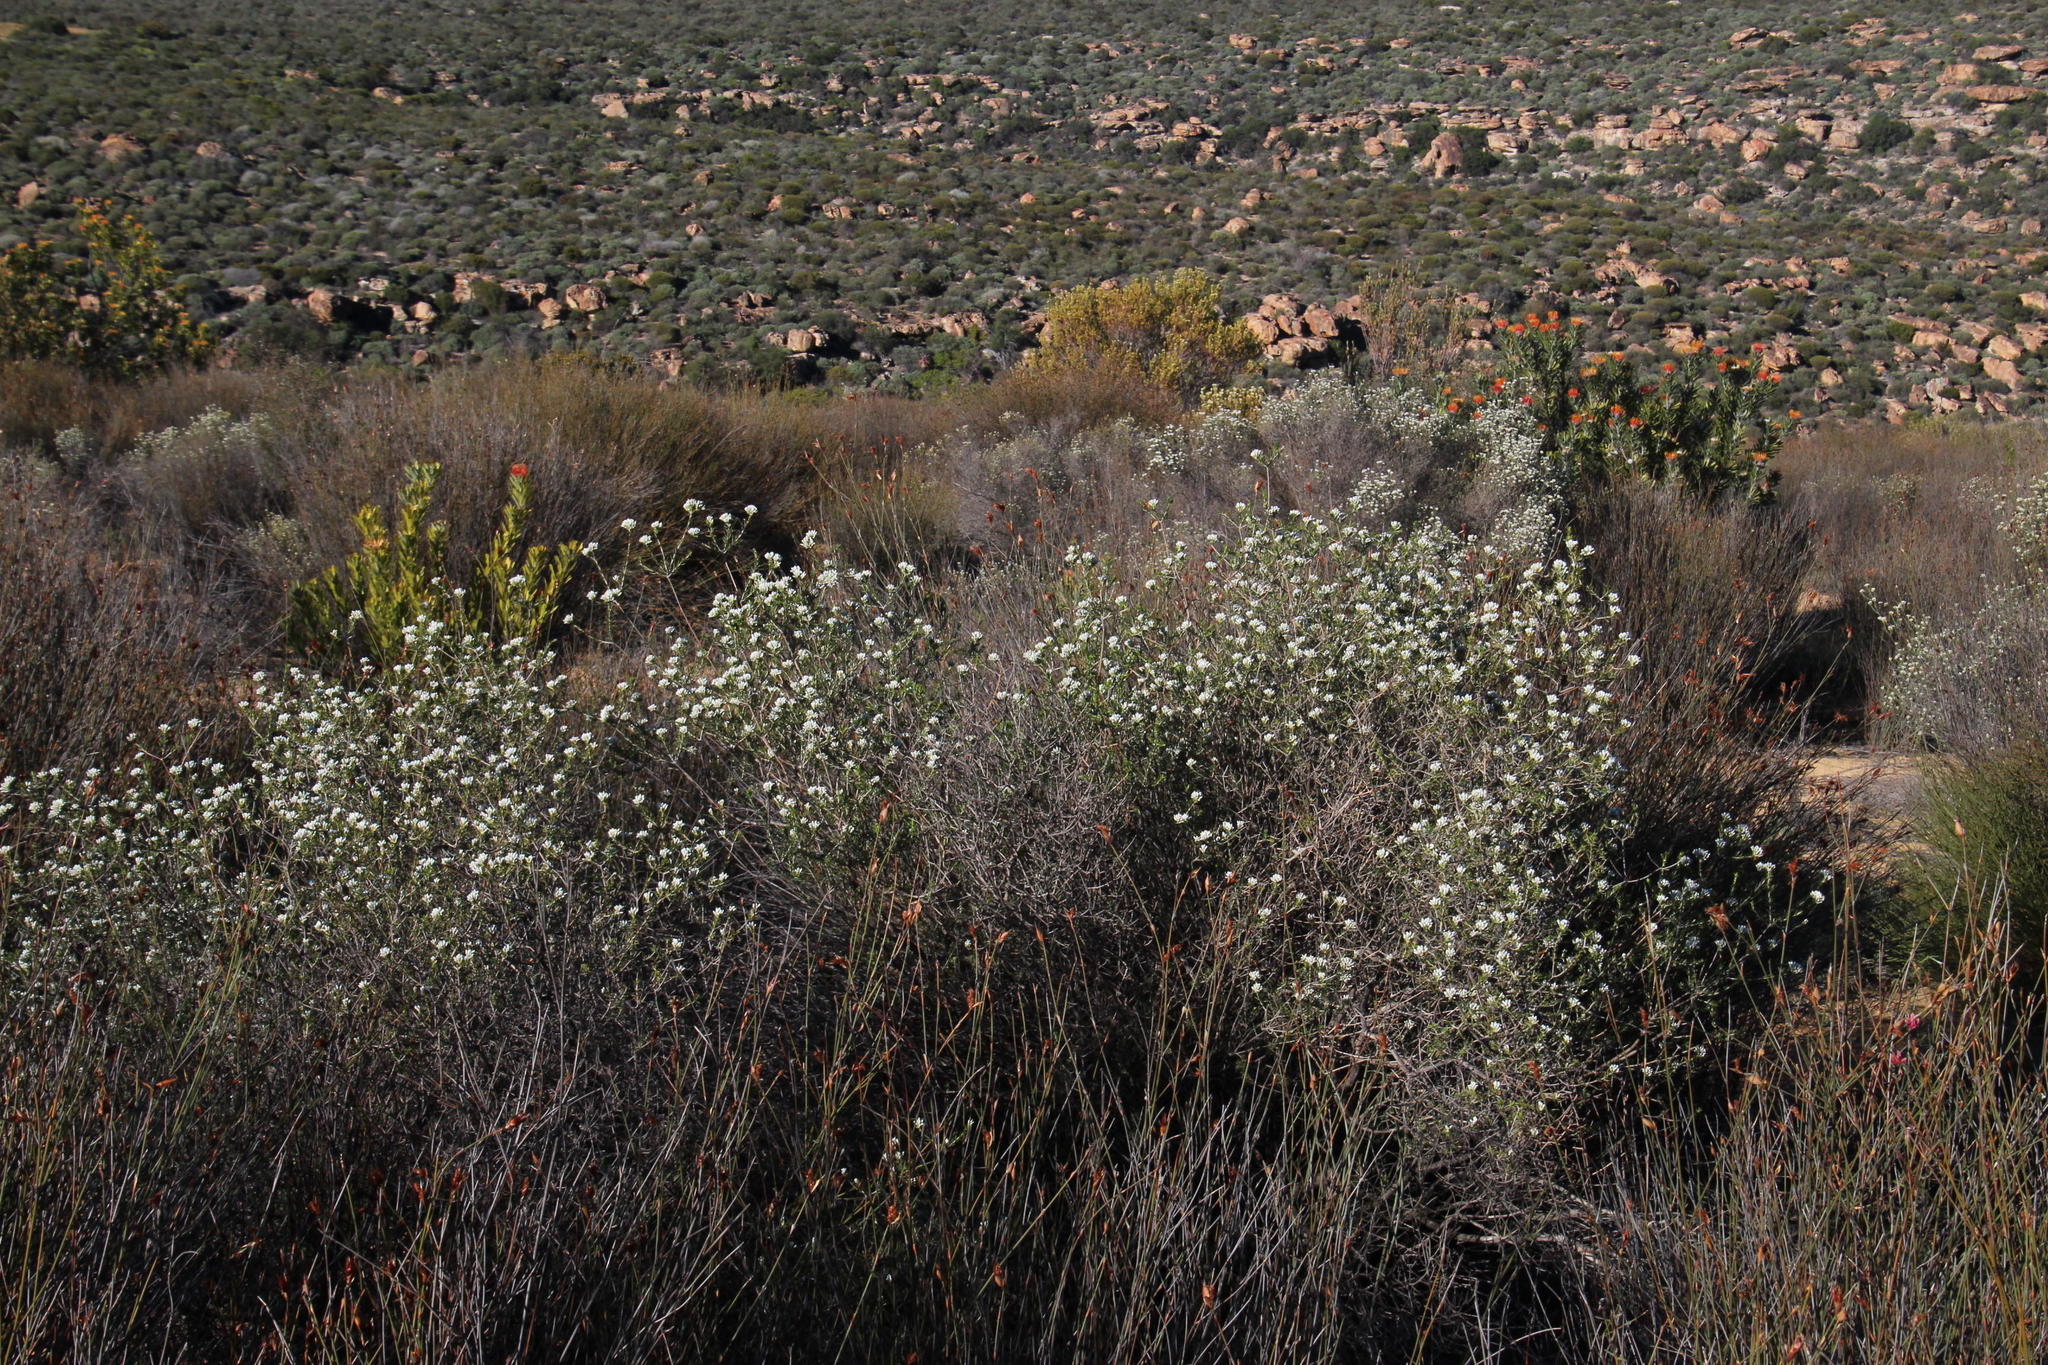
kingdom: Plantae
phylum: Tracheophyta
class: Magnoliopsida
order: Asterales
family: Asteraceae
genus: Metalasia
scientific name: Metalasia adunca
